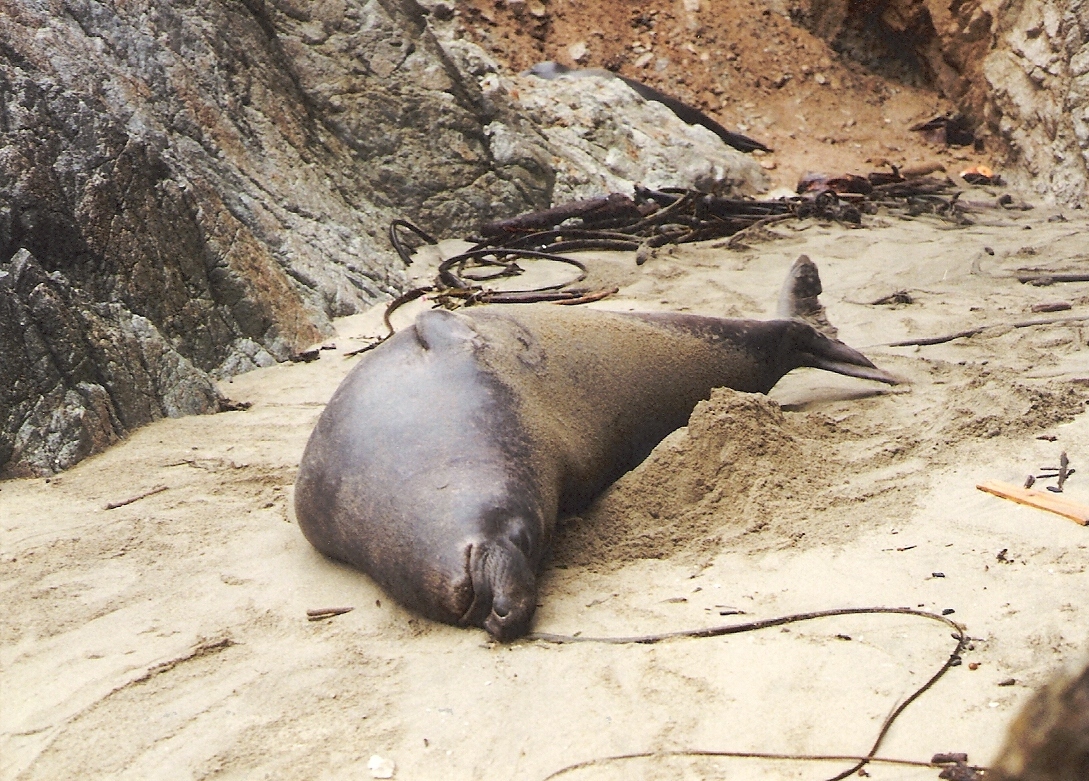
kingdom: Animalia
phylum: Chordata
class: Mammalia
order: Carnivora
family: Phocidae
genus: Mirounga
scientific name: Mirounga angustirostris
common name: Northern elephant seal
